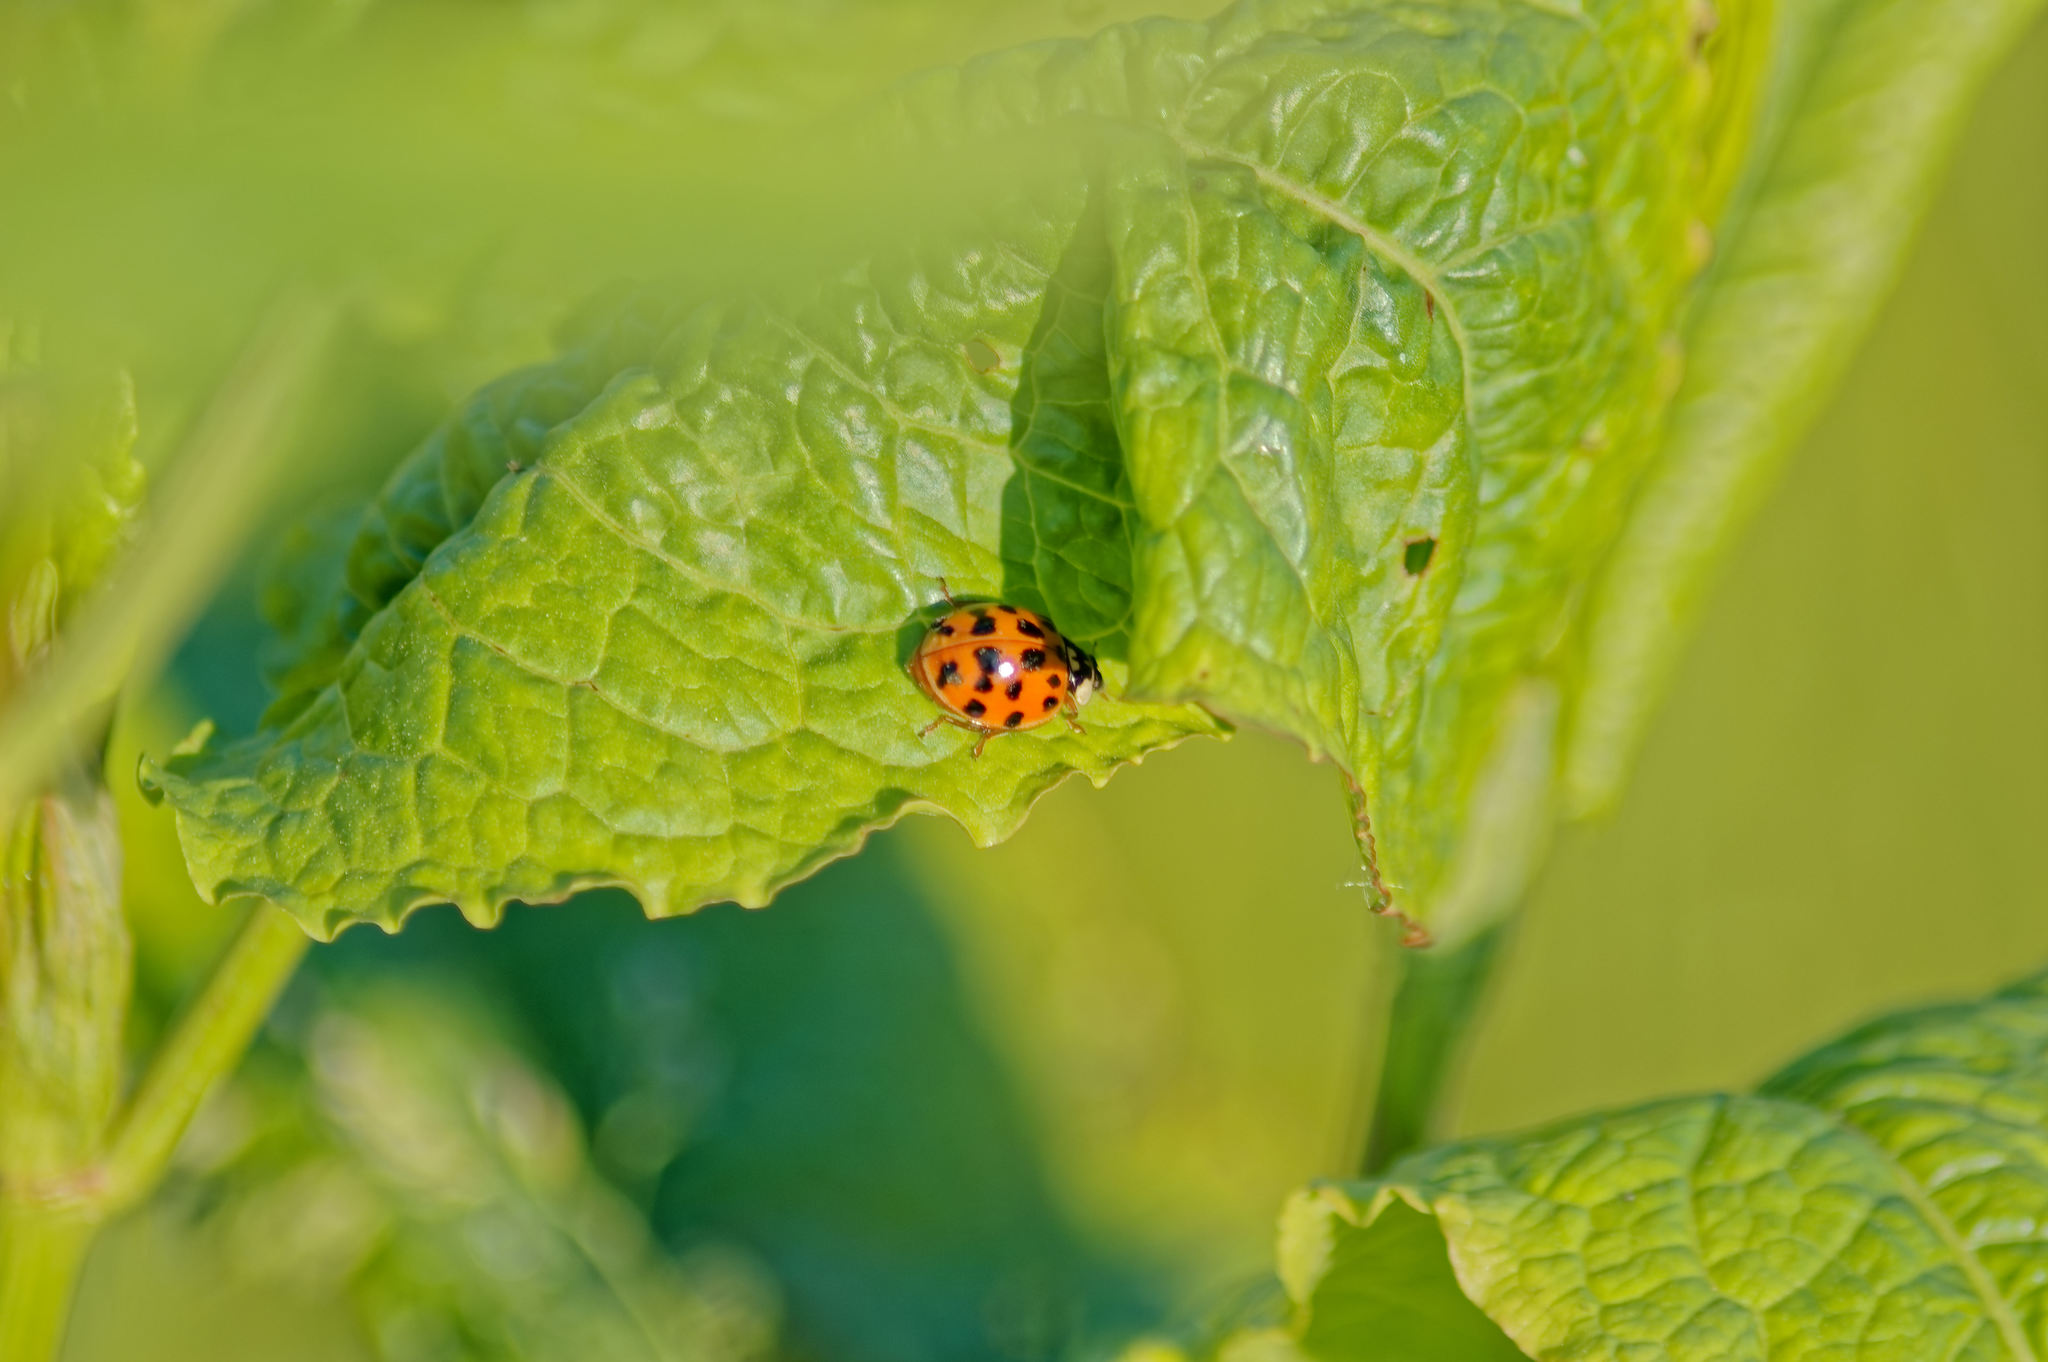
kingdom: Animalia
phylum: Arthropoda
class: Insecta
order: Coleoptera
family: Coccinellidae
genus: Harmonia
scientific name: Harmonia axyridis
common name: Harlequin ladybird
